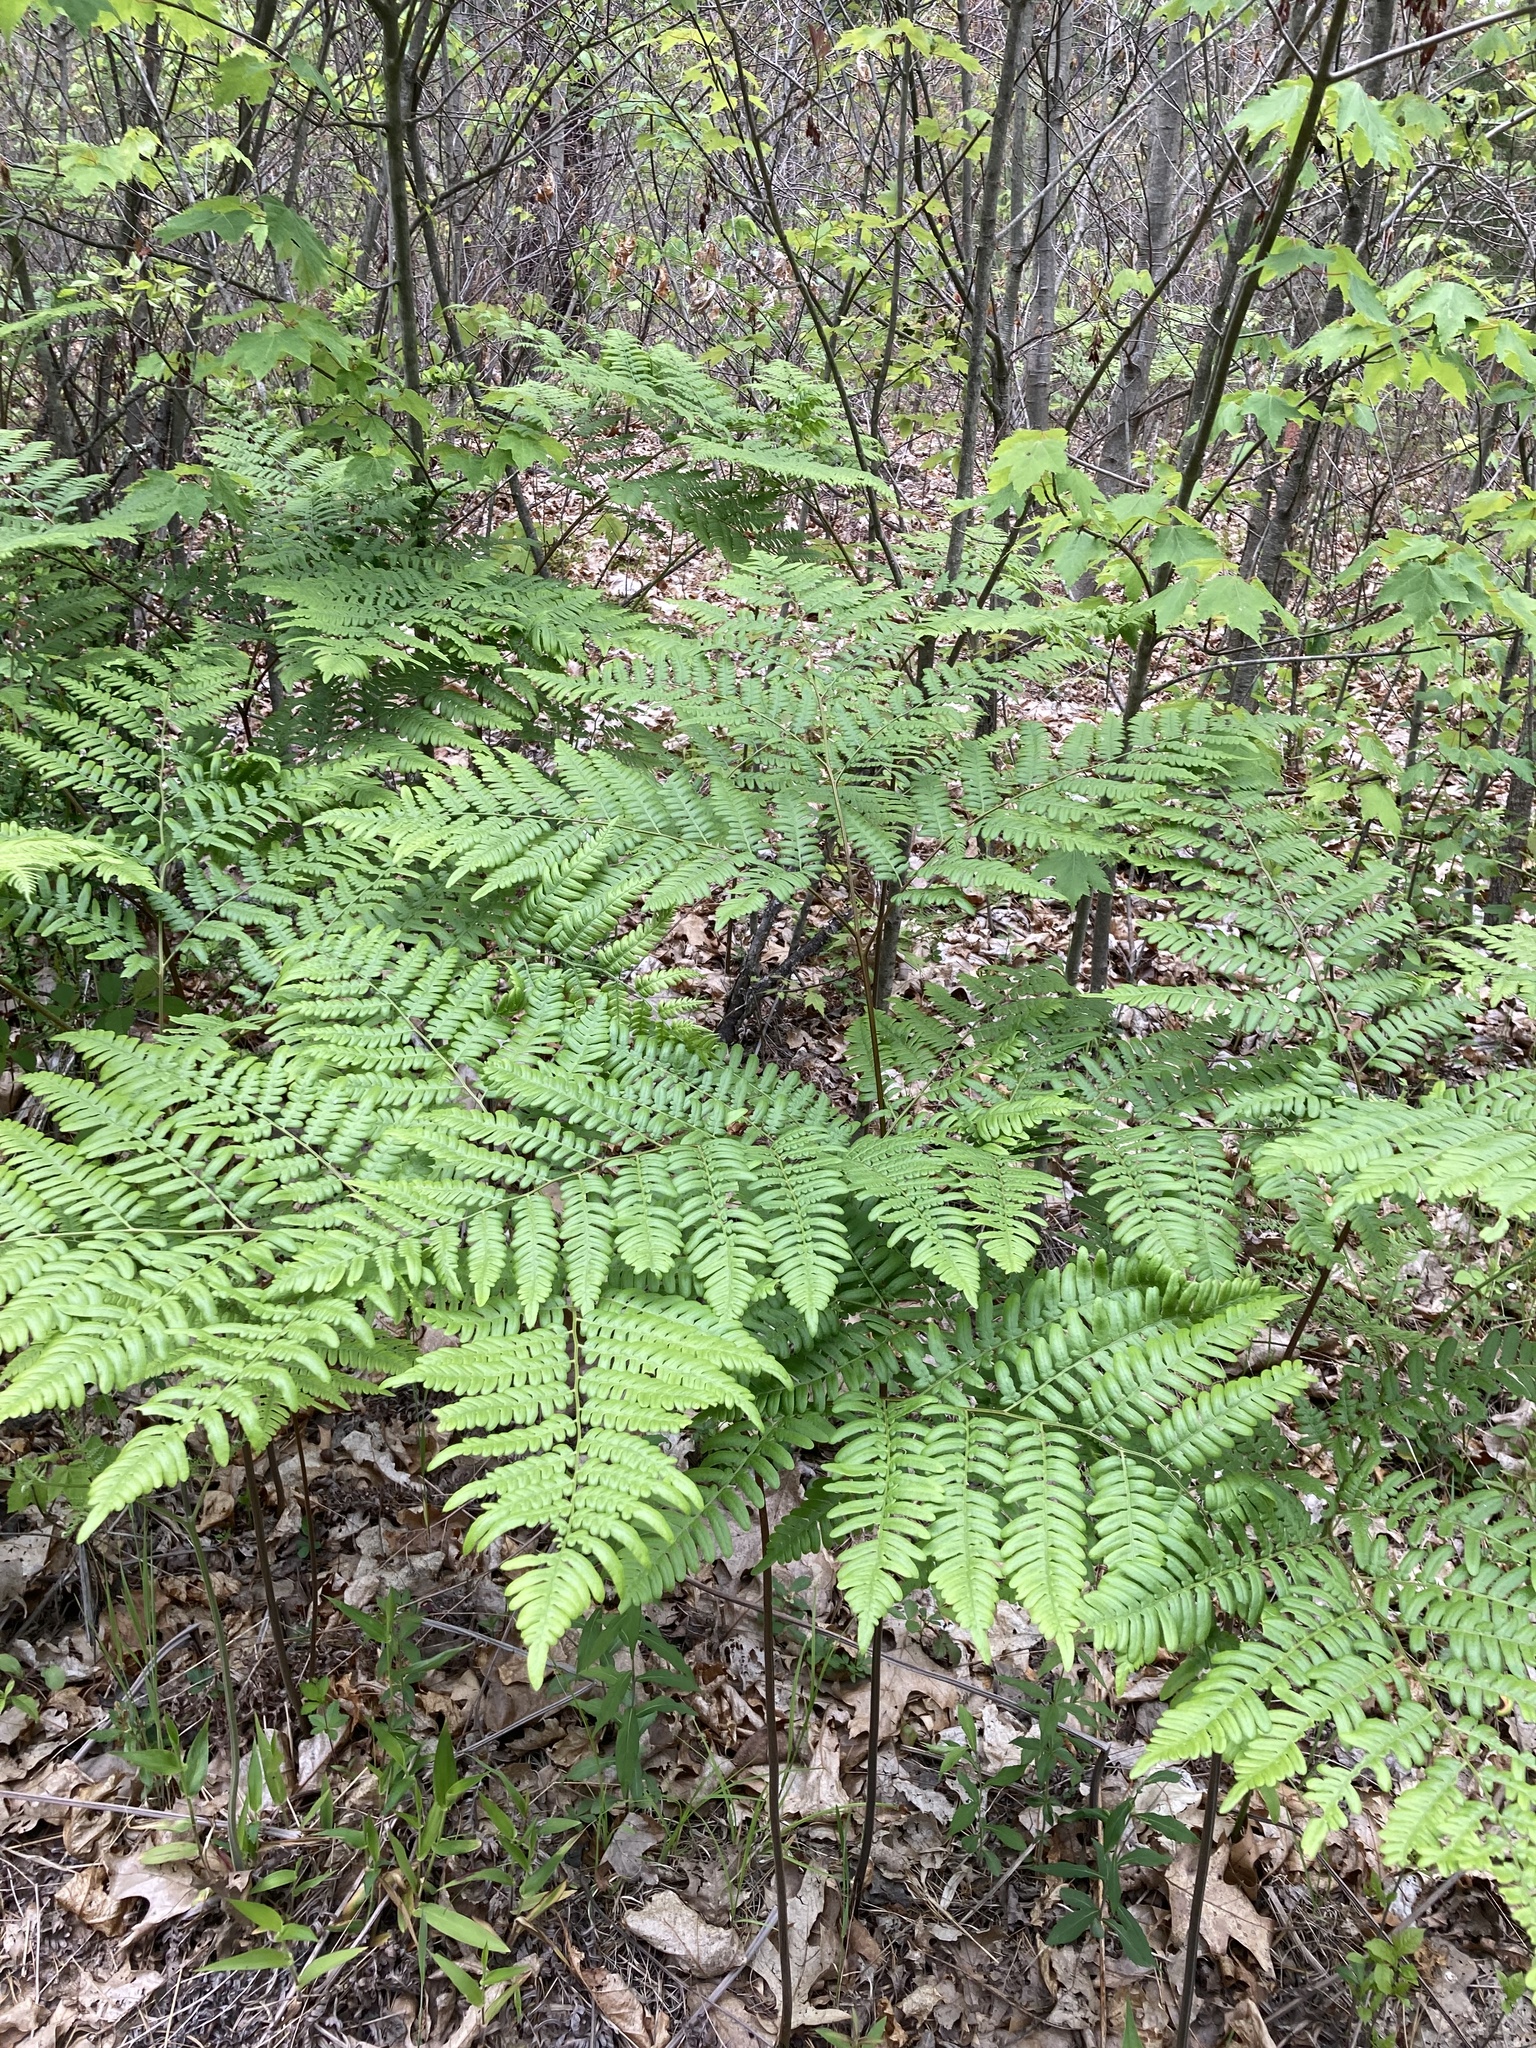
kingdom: Plantae
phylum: Tracheophyta
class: Polypodiopsida
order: Polypodiales
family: Dennstaedtiaceae
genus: Pteridium
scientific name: Pteridium aquilinum
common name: Bracken
